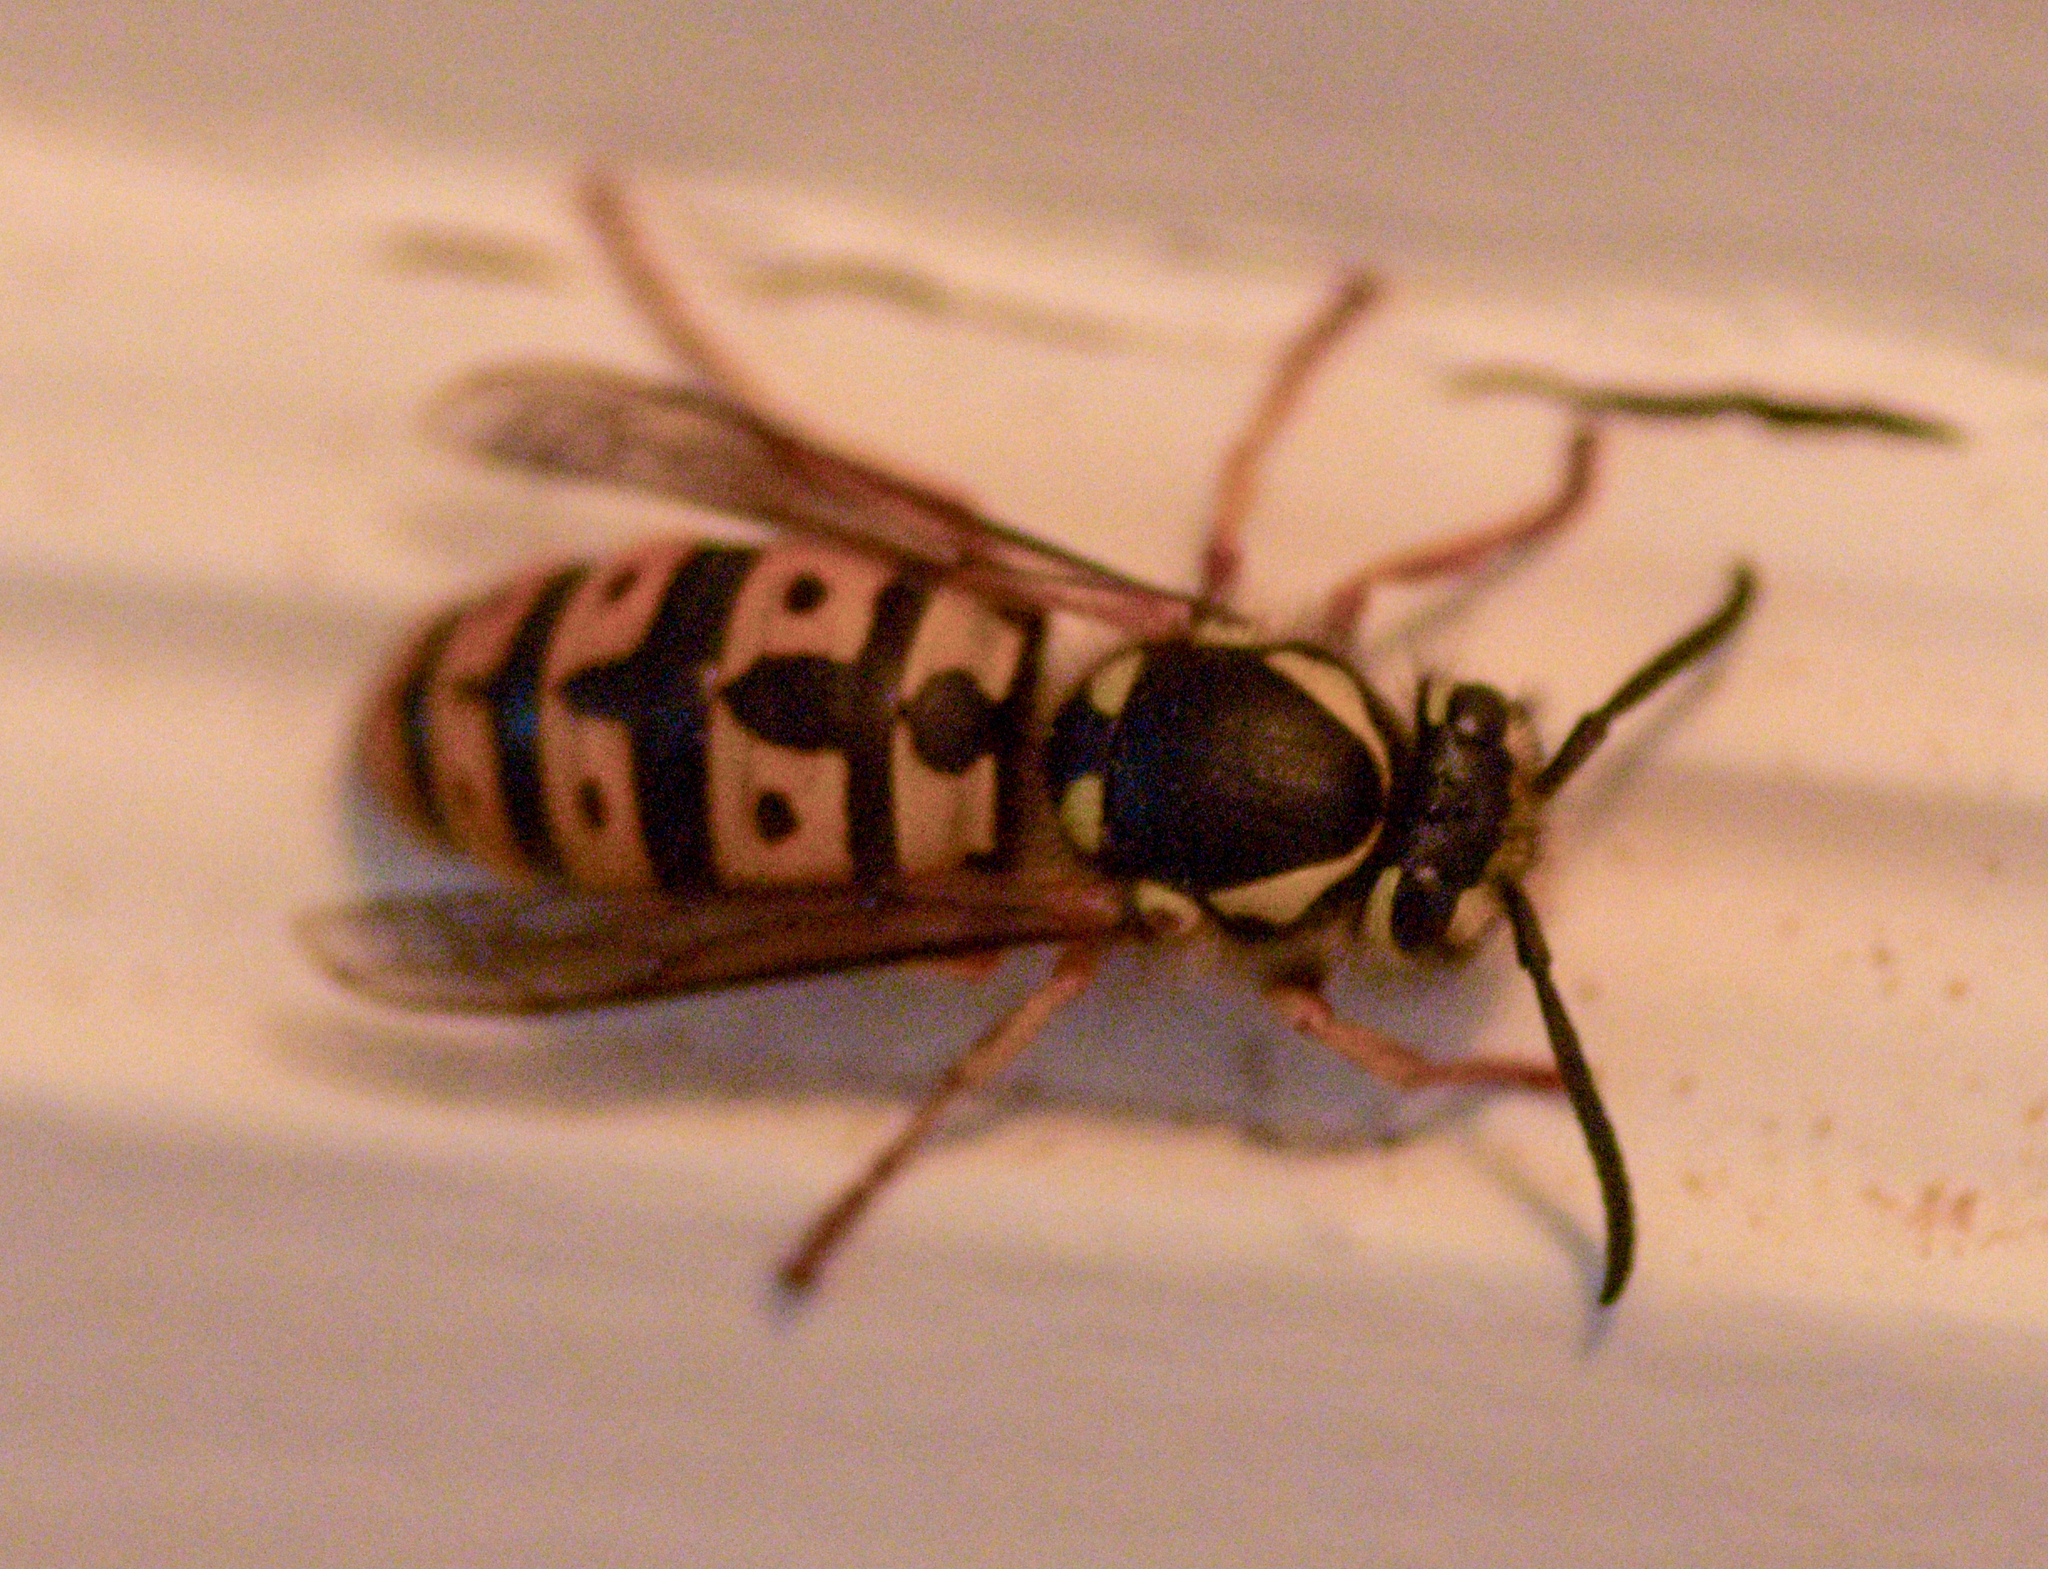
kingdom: Animalia
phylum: Arthropoda
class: Insecta
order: Hymenoptera
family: Vespidae
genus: Vespula
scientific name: Vespula germanica
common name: German wasp
